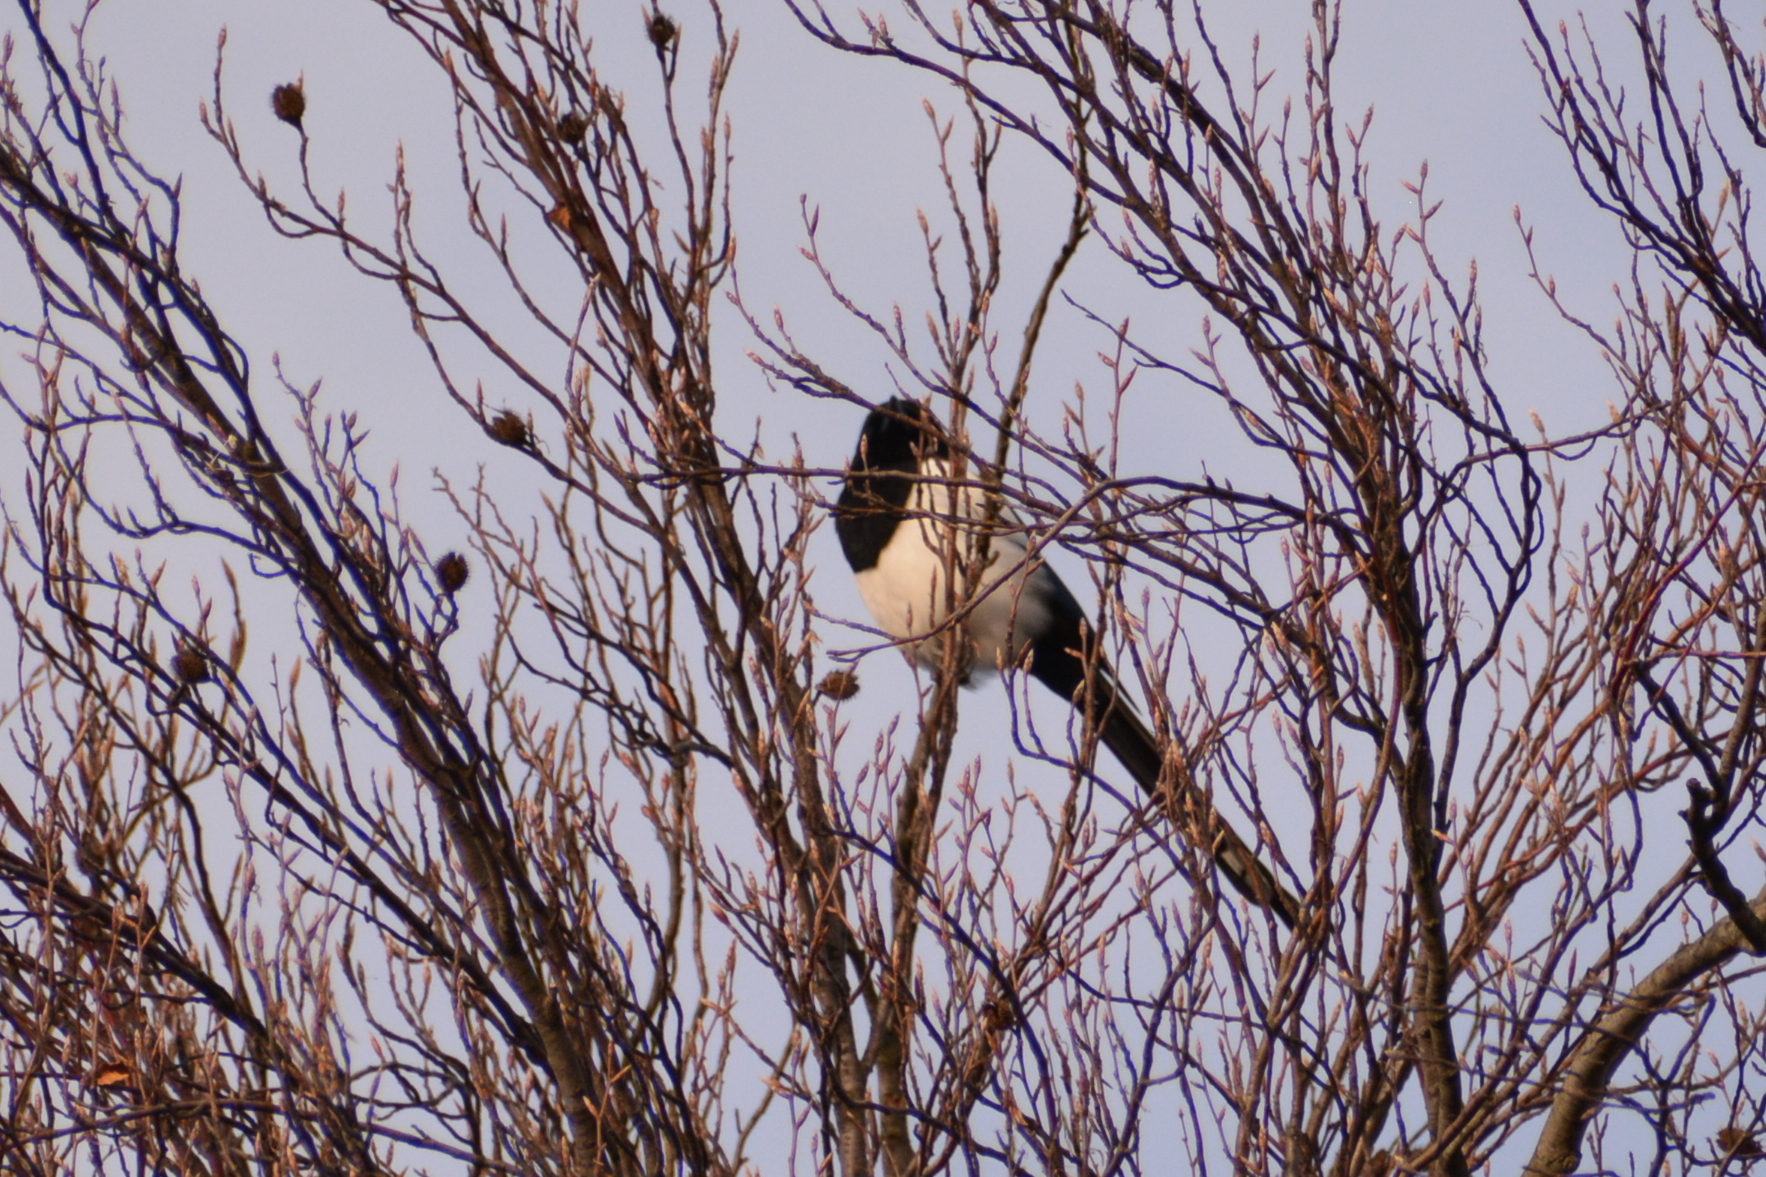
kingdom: Animalia
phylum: Chordata
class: Aves
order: Passeriformes
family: Corvidae
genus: Pica
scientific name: Pica pica
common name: Eurasian magpie
